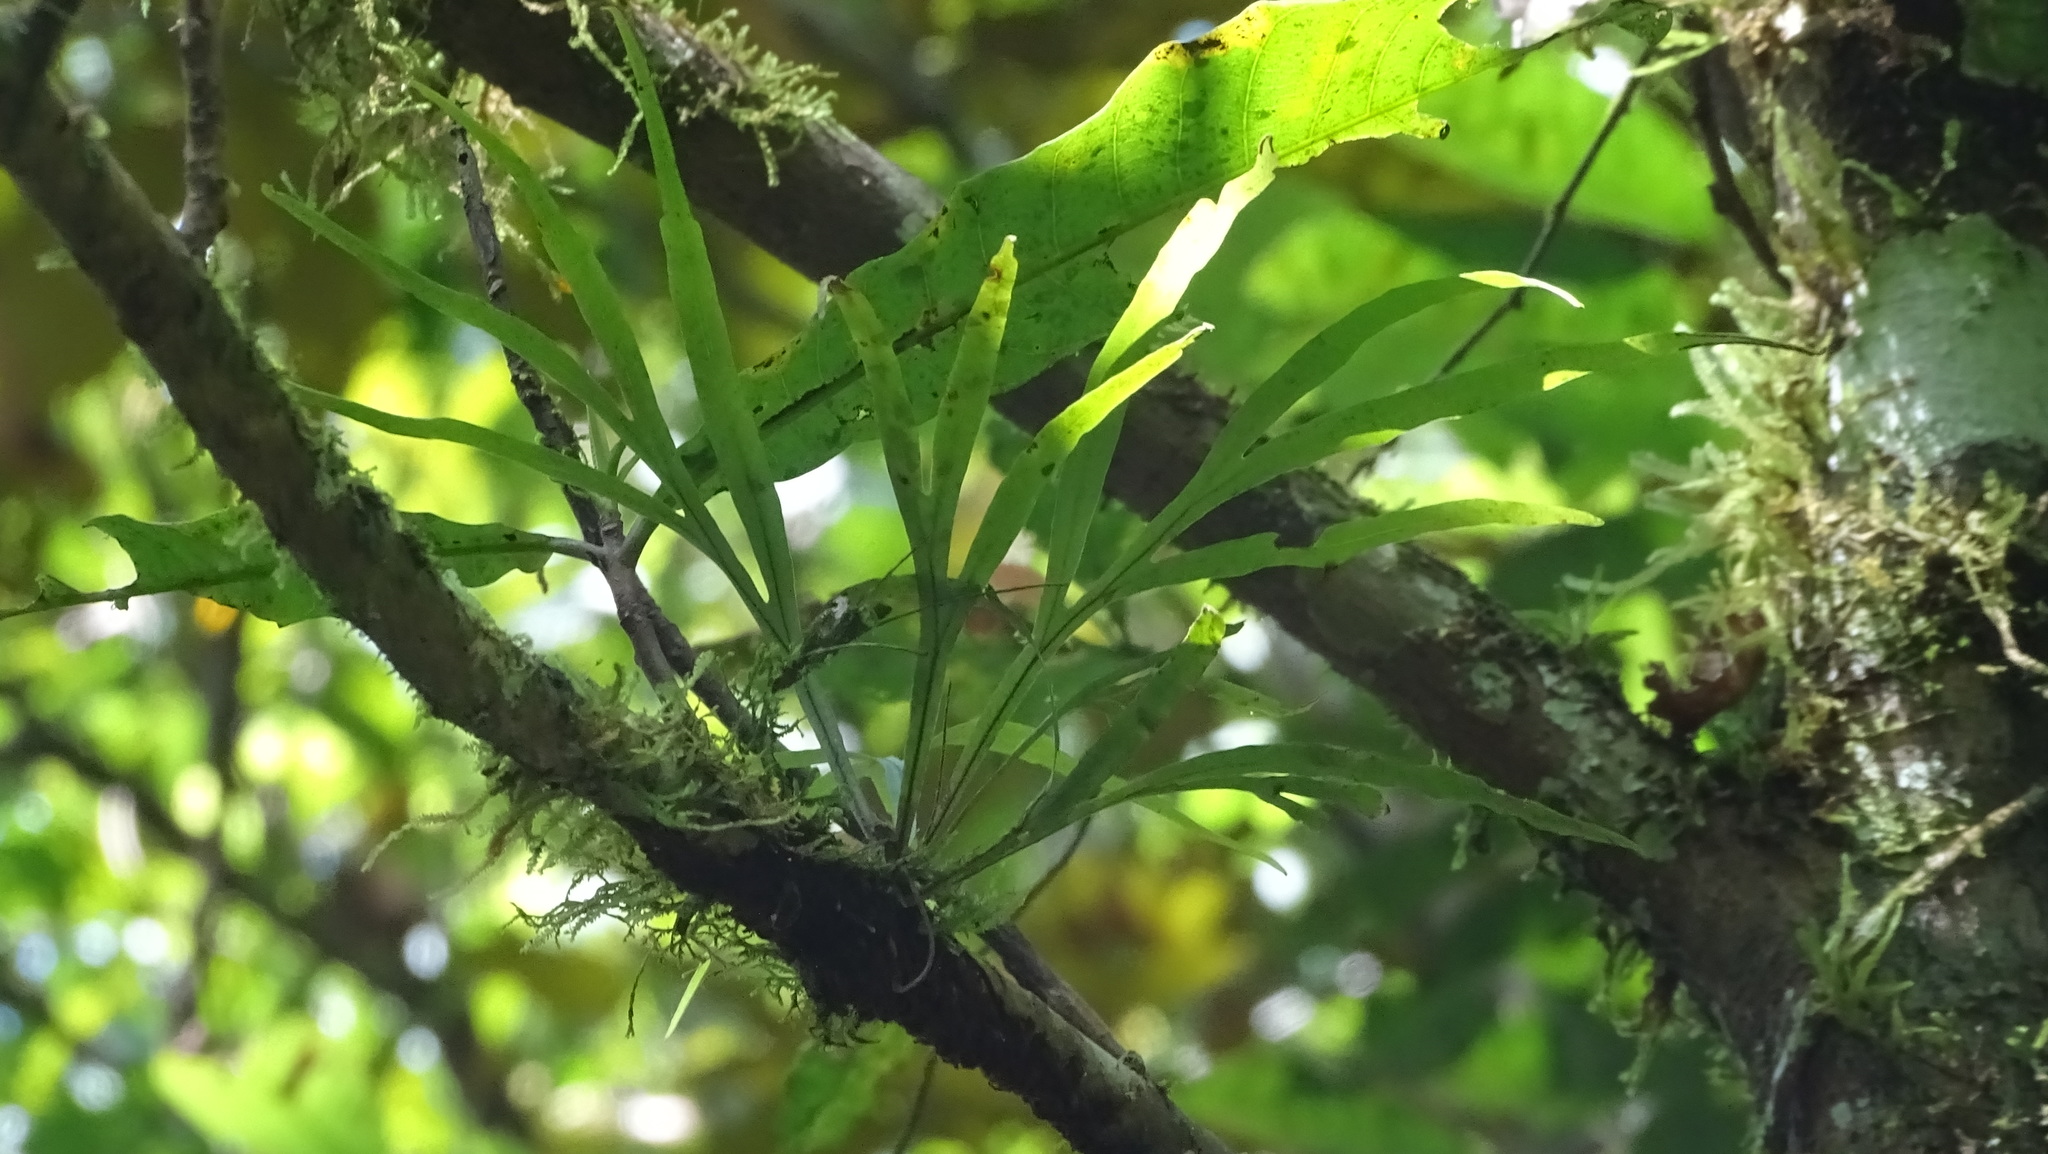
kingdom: Plantae
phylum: Tracheophyta
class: Polypodiopsida
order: Polypodiales
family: Polypodiaceae
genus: Pleopeltis
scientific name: Pleopeltis christensenii
